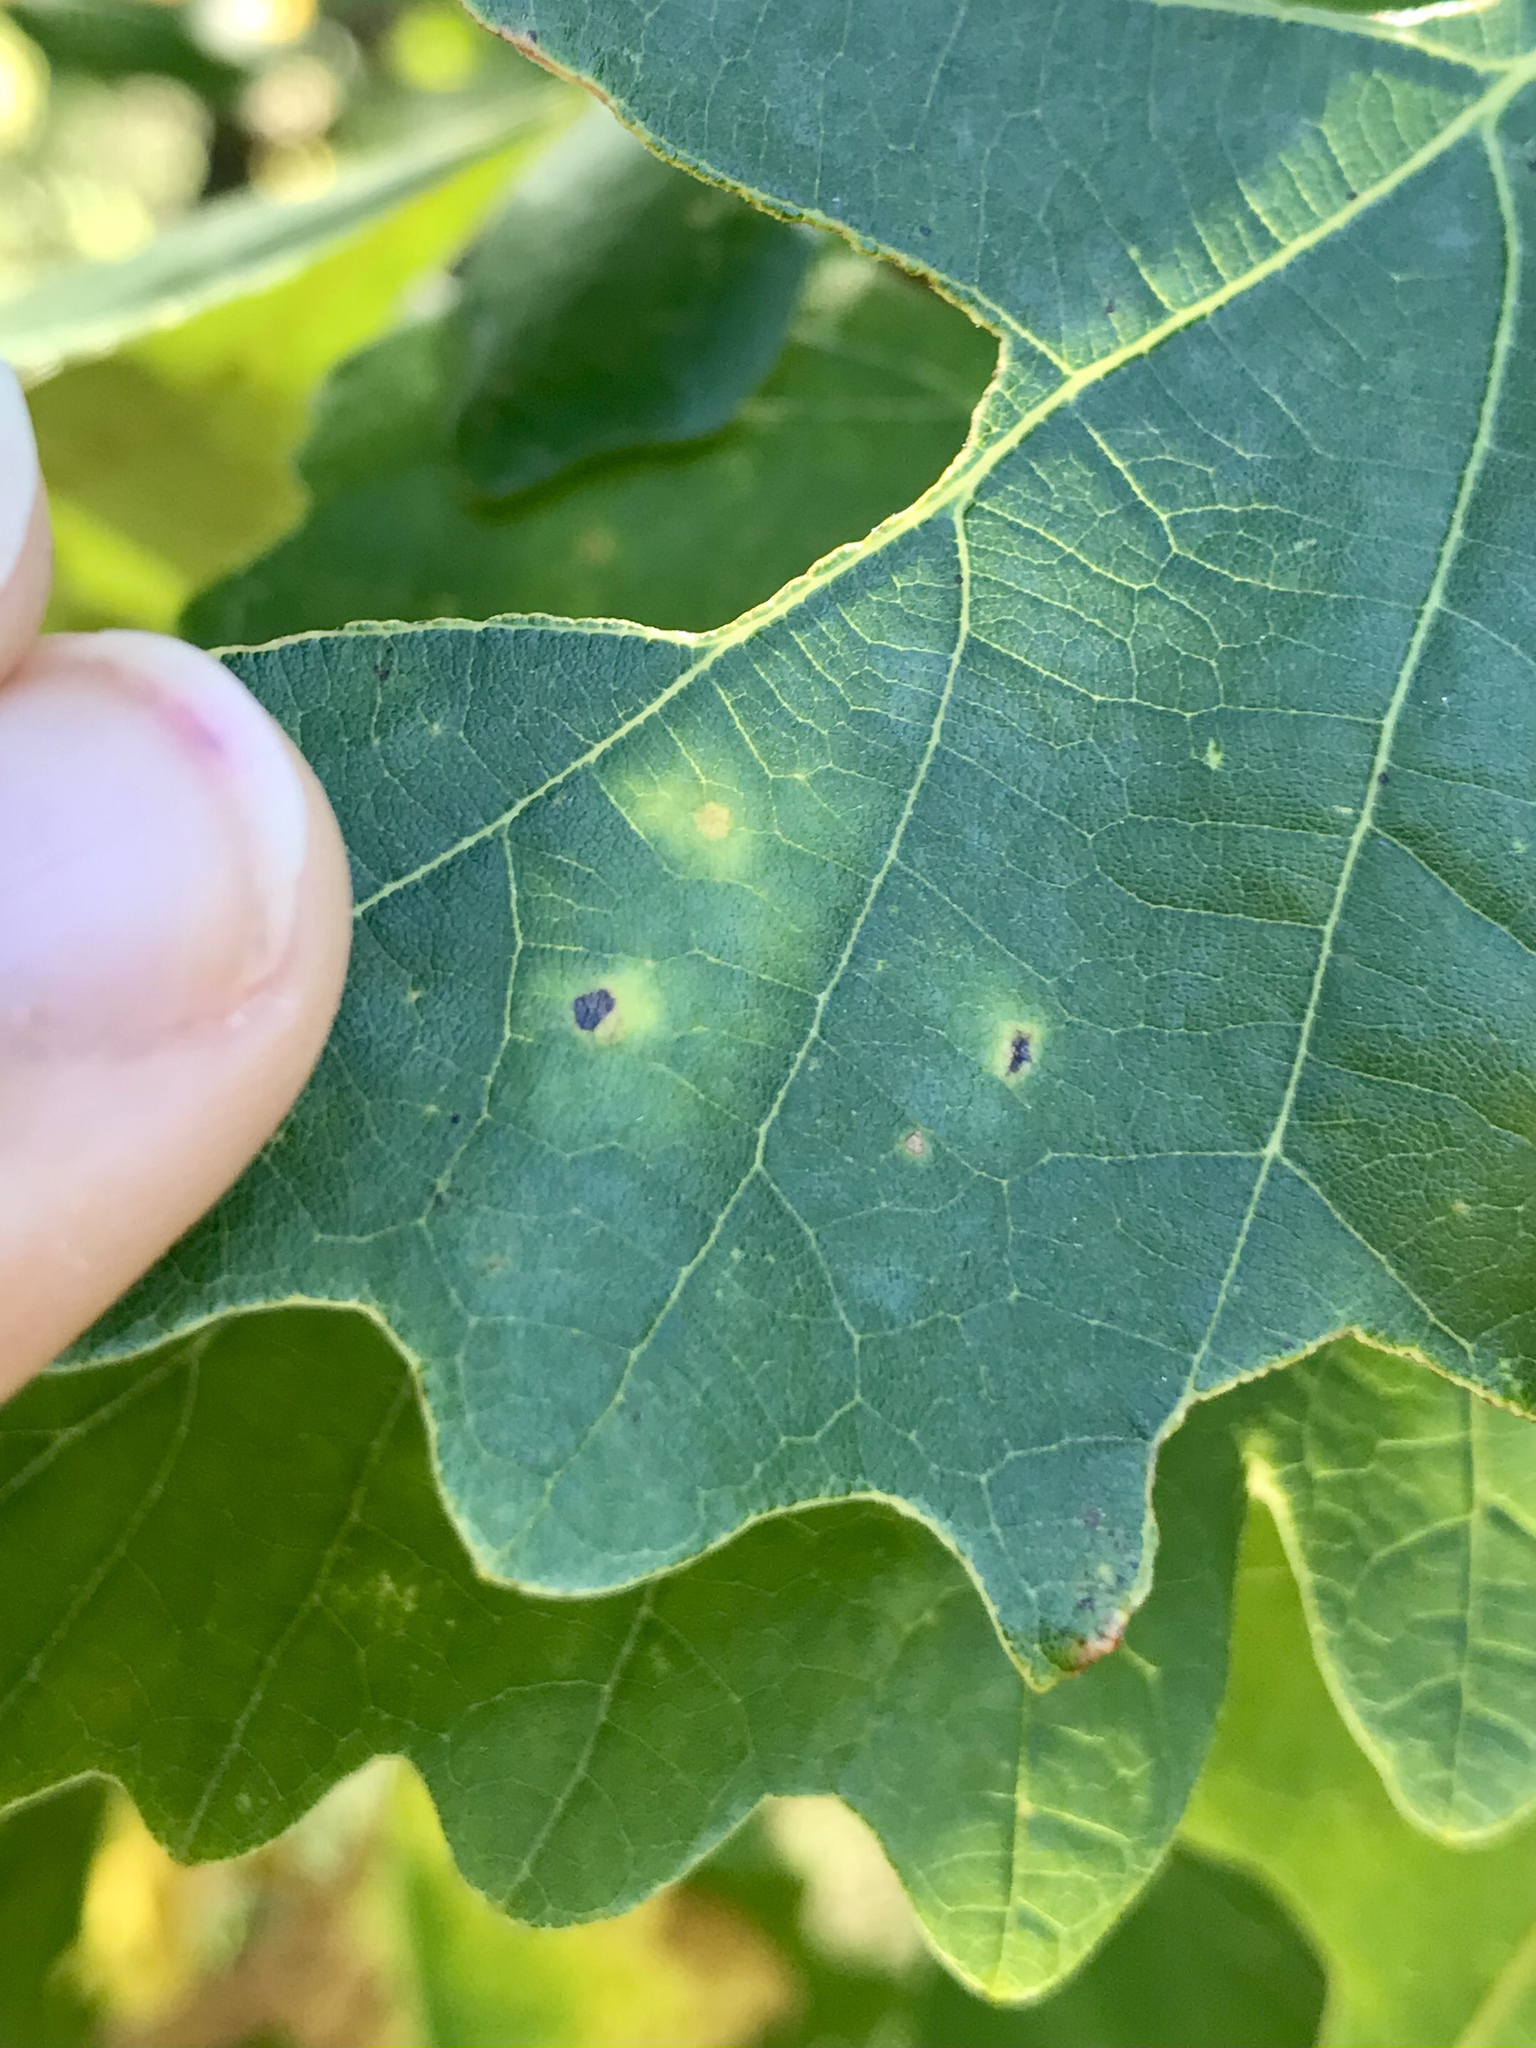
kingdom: Animalia
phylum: Arthropoda
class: Insecta
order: Hymenoptera
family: Cynipidae
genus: Phylloteras
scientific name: Phylloteras
